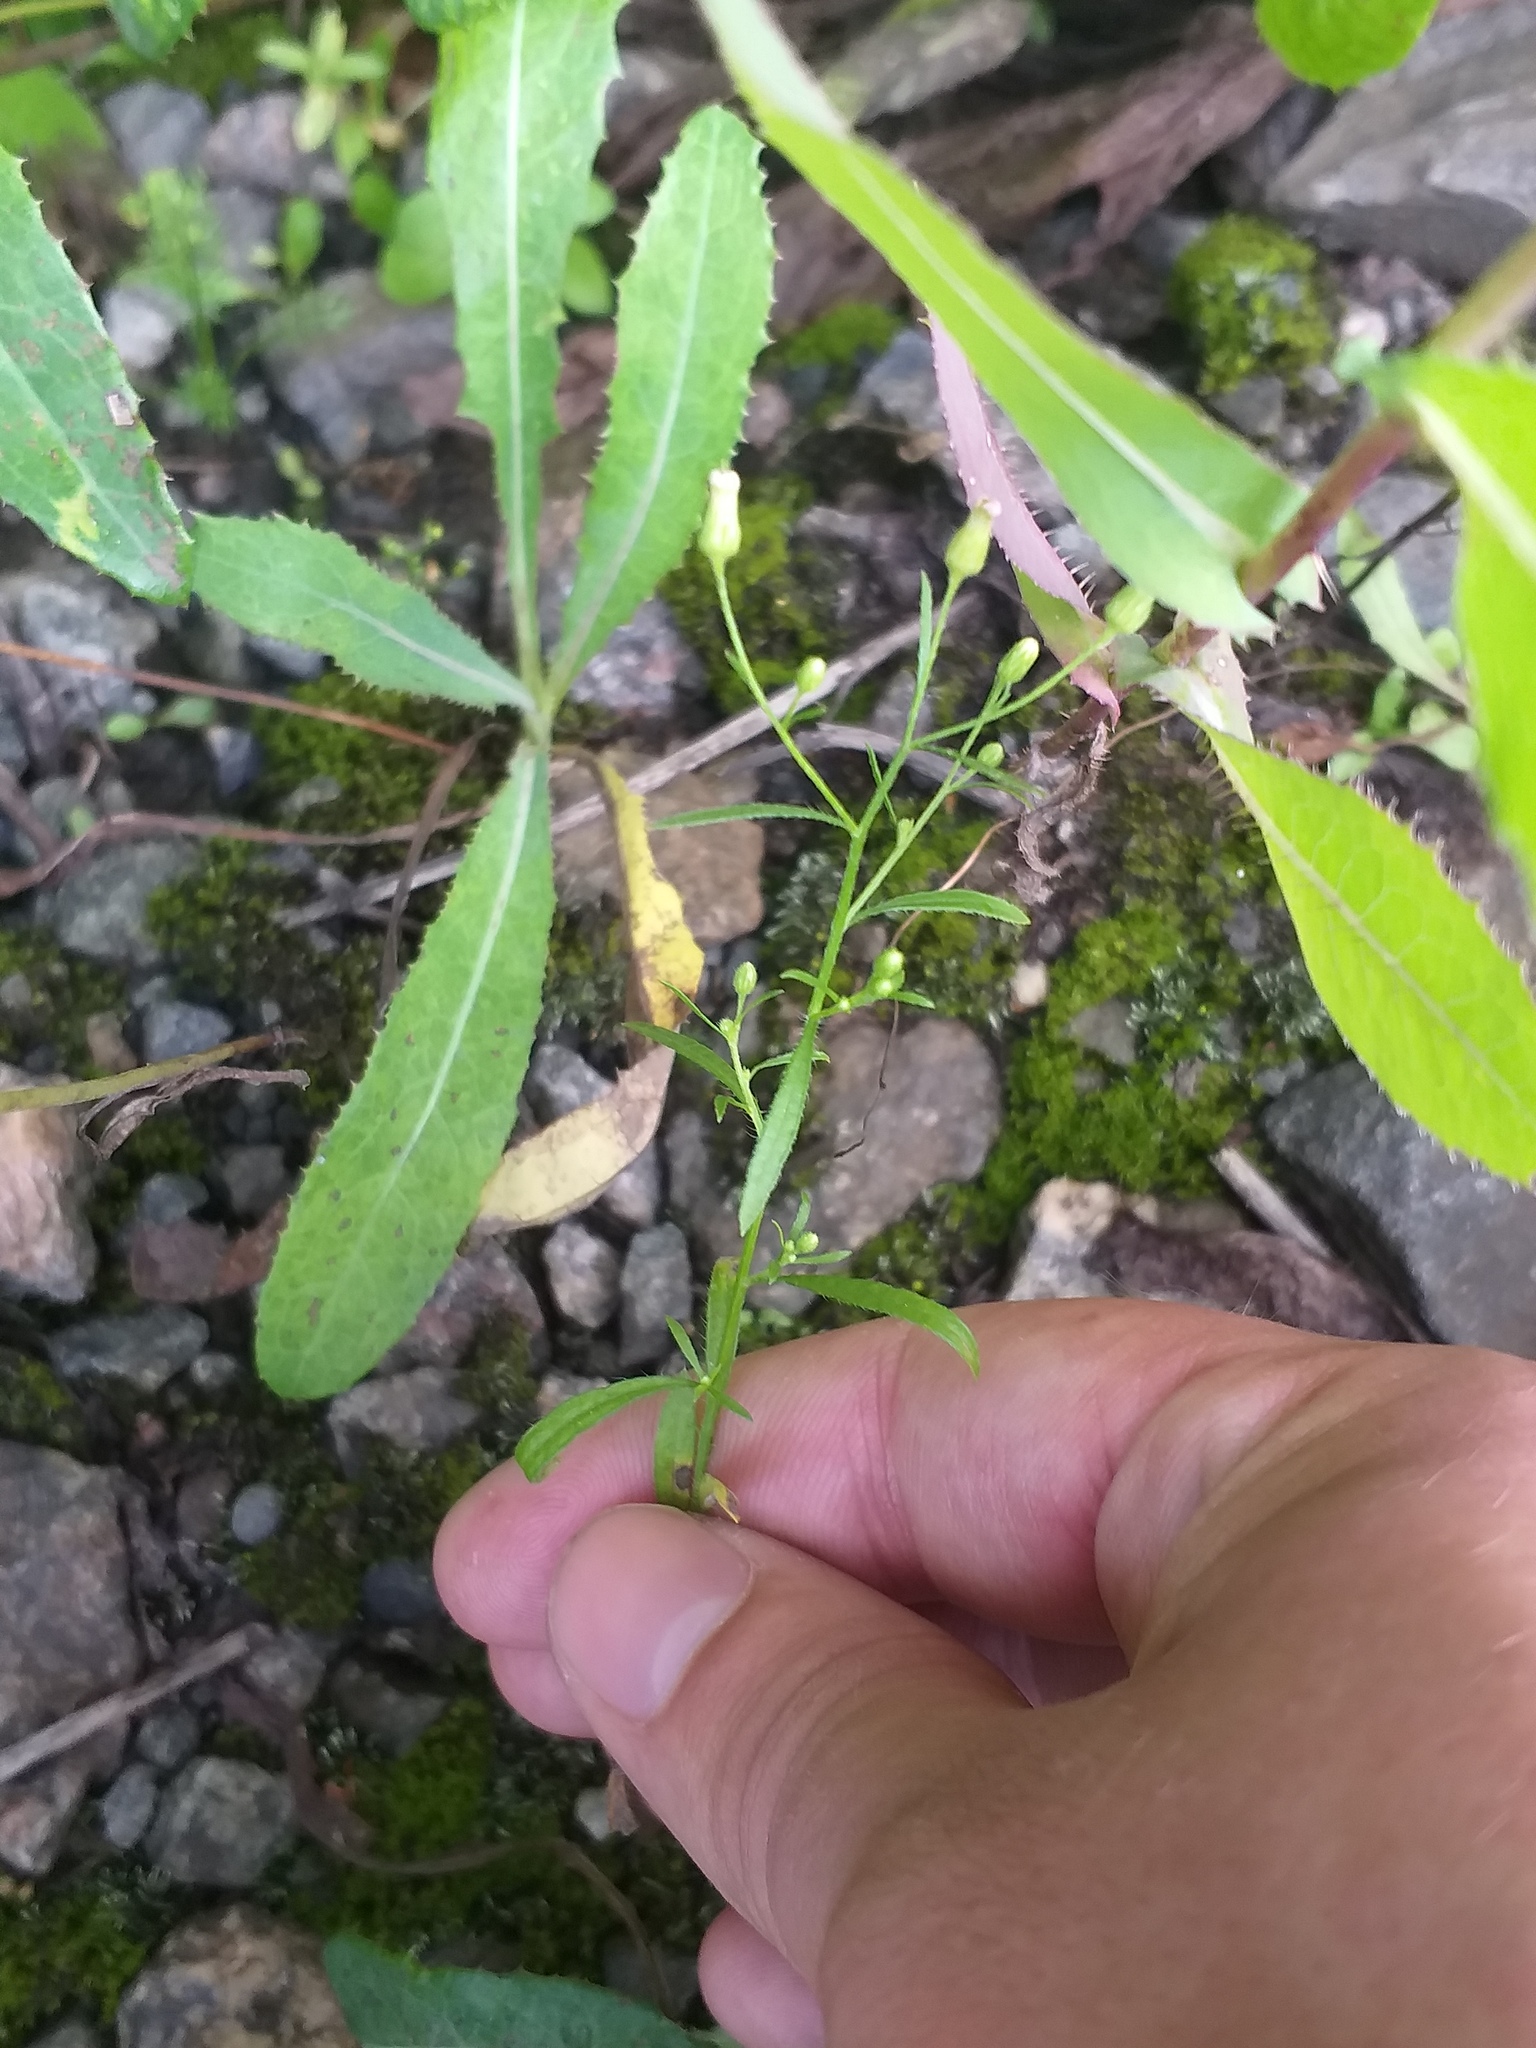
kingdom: Plantae
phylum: Tracheophyta
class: Magnoliopsida
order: Asterales
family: Asteraceae
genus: Erigeron
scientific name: Erigeron canadensis
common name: Canadian fleabane
